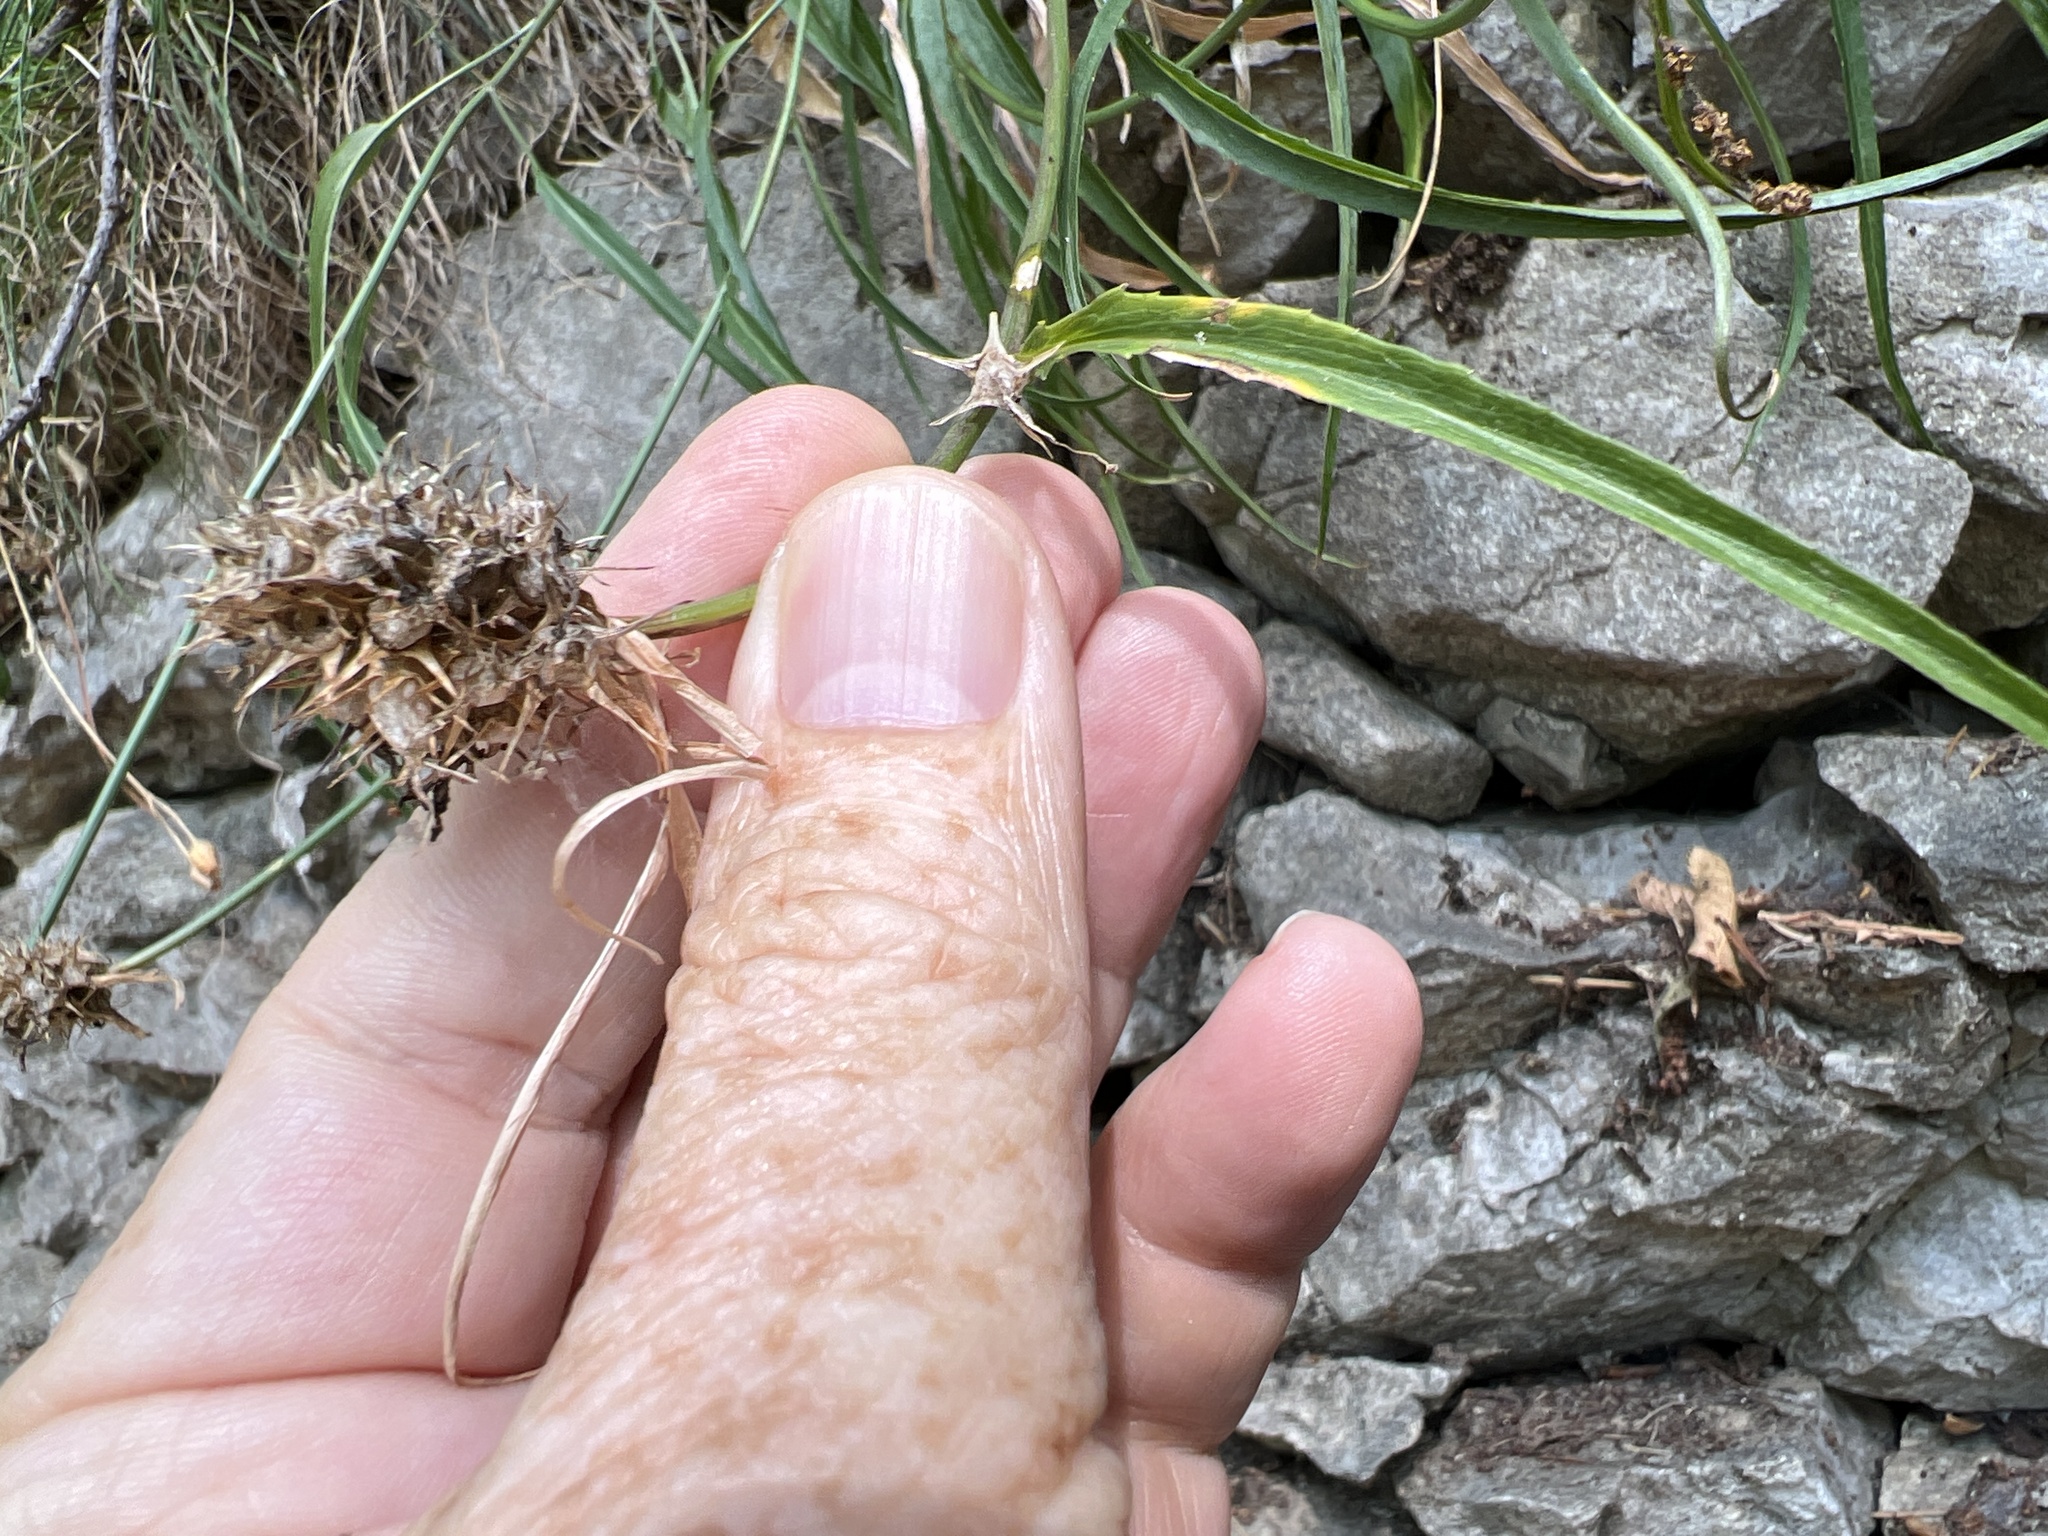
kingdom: Plantae
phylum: Tracheophyta
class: Magnoliopsida
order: Asterales
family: Campanulaceae
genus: Phyteuma
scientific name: Phyteuma scheuchzeri
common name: Oxford rampion
